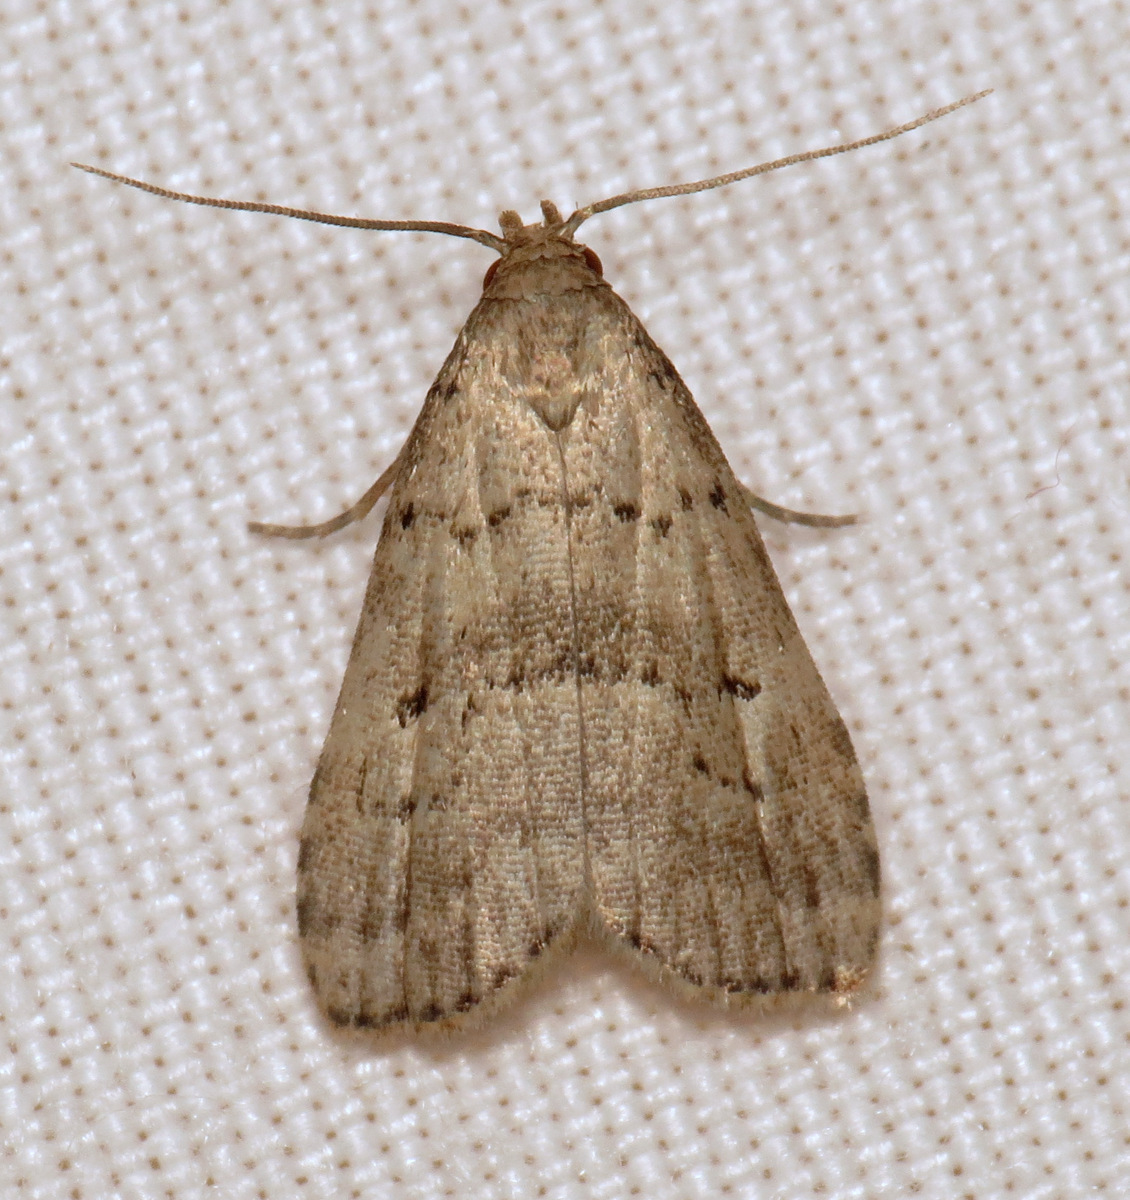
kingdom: Animalia
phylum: Arthropoda
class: Insecta
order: Lepidoptera
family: Erebidae
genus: Hypenodes
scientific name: Hypenodes fractilinea
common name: Broken-line hypenodes moth
